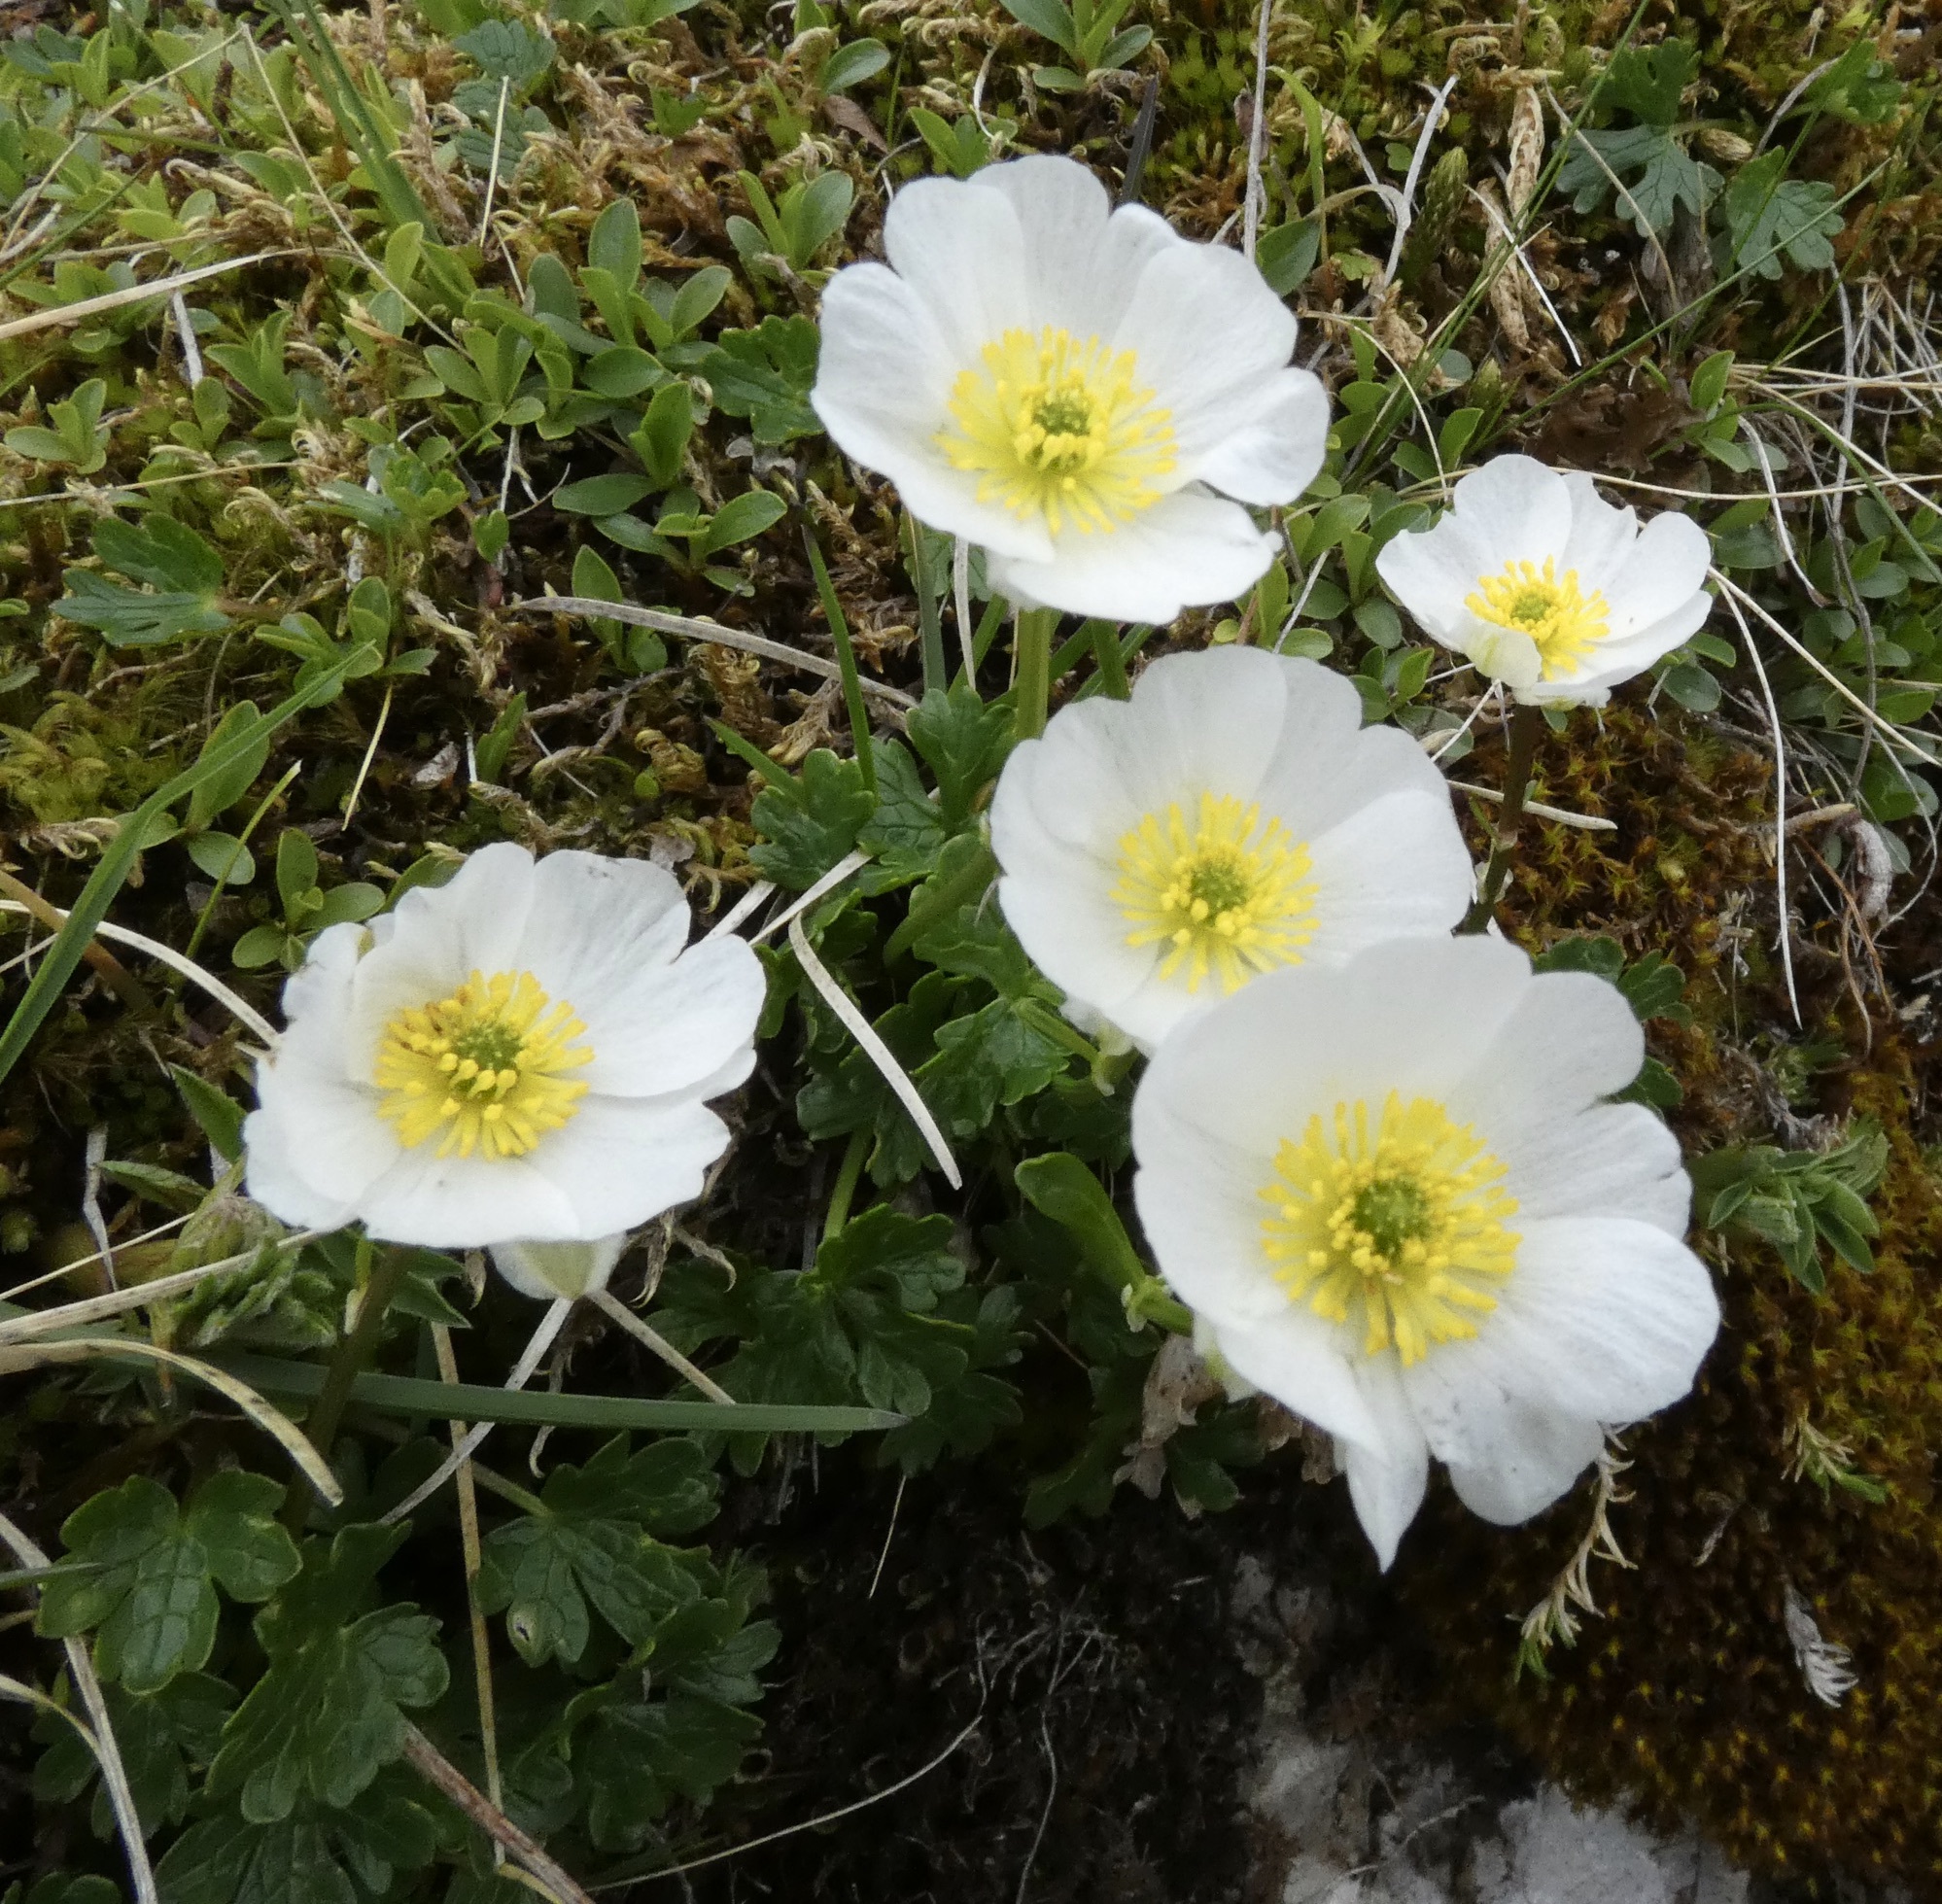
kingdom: Plantae
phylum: Tracheophyta
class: Magnoliopsida
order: Ranunculales
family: Ranunculaceae
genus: Ranunculus
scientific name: Ranunculus alpestris
